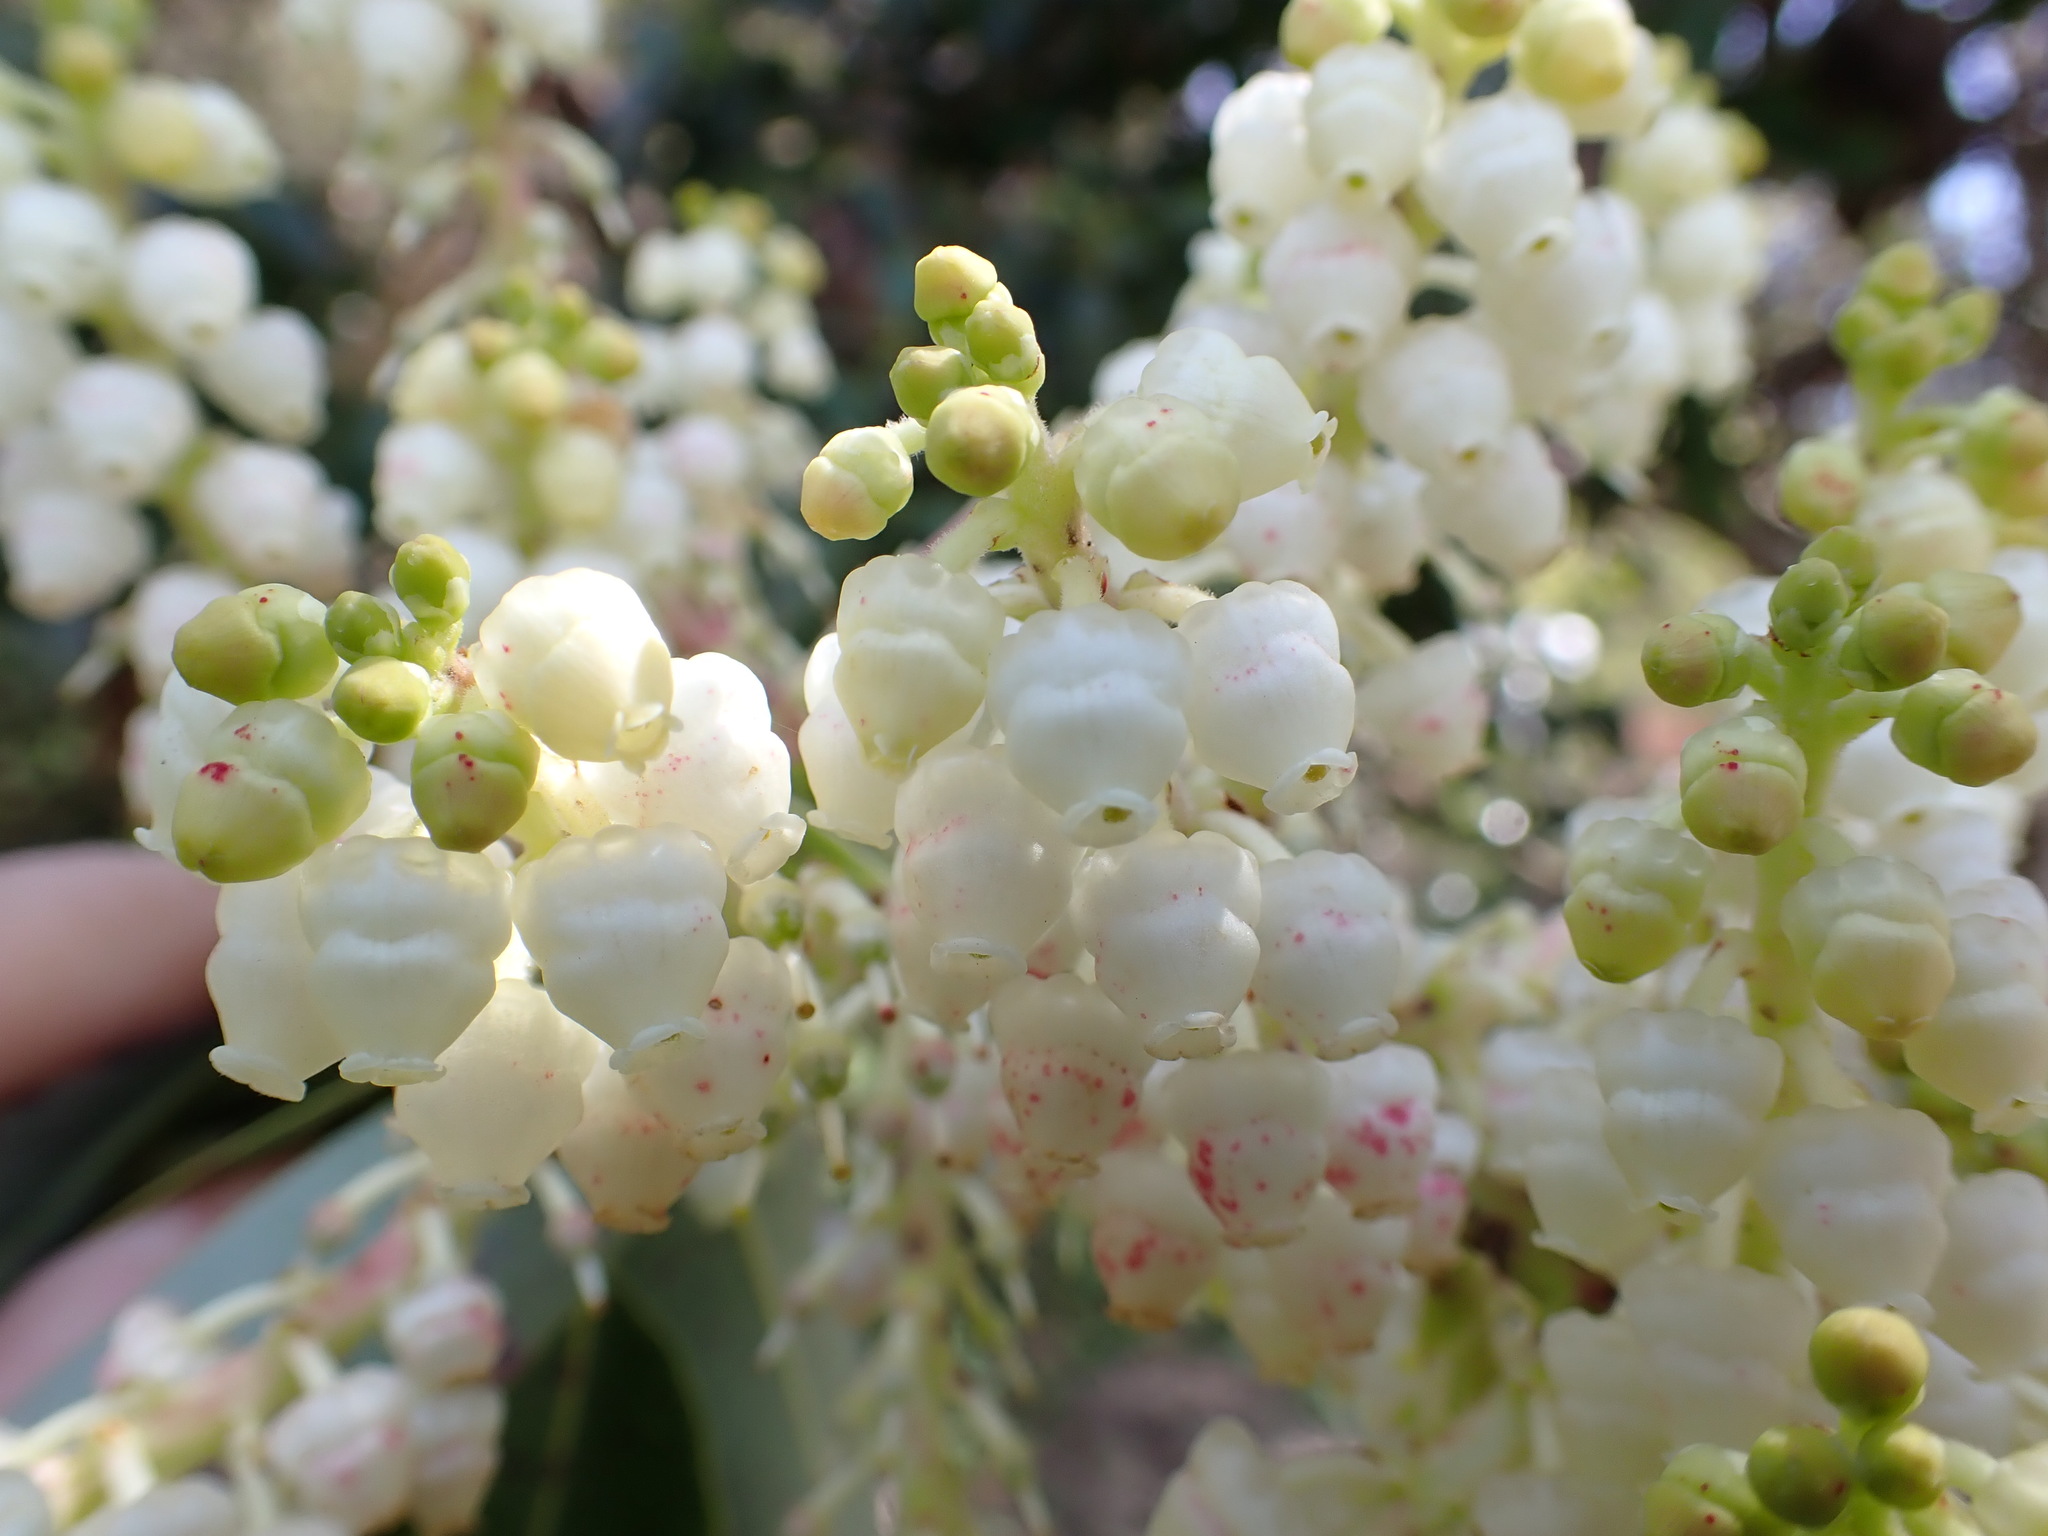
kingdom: Plantae
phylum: Tracheophyta
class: Magnoliopsida
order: Ericales
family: Ericaceae
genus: Arbutus
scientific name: Arbutus menziesii
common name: Pacific madrone
